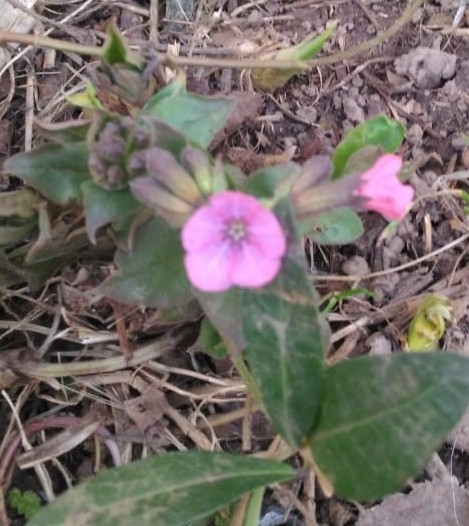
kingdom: Plantae
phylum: Tracheophyta
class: Magnoliopsida
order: Boraginales
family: Boraginaceae
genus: Pulmonaria
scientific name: Pulmonaria obscura
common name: Suffolk lungwort
